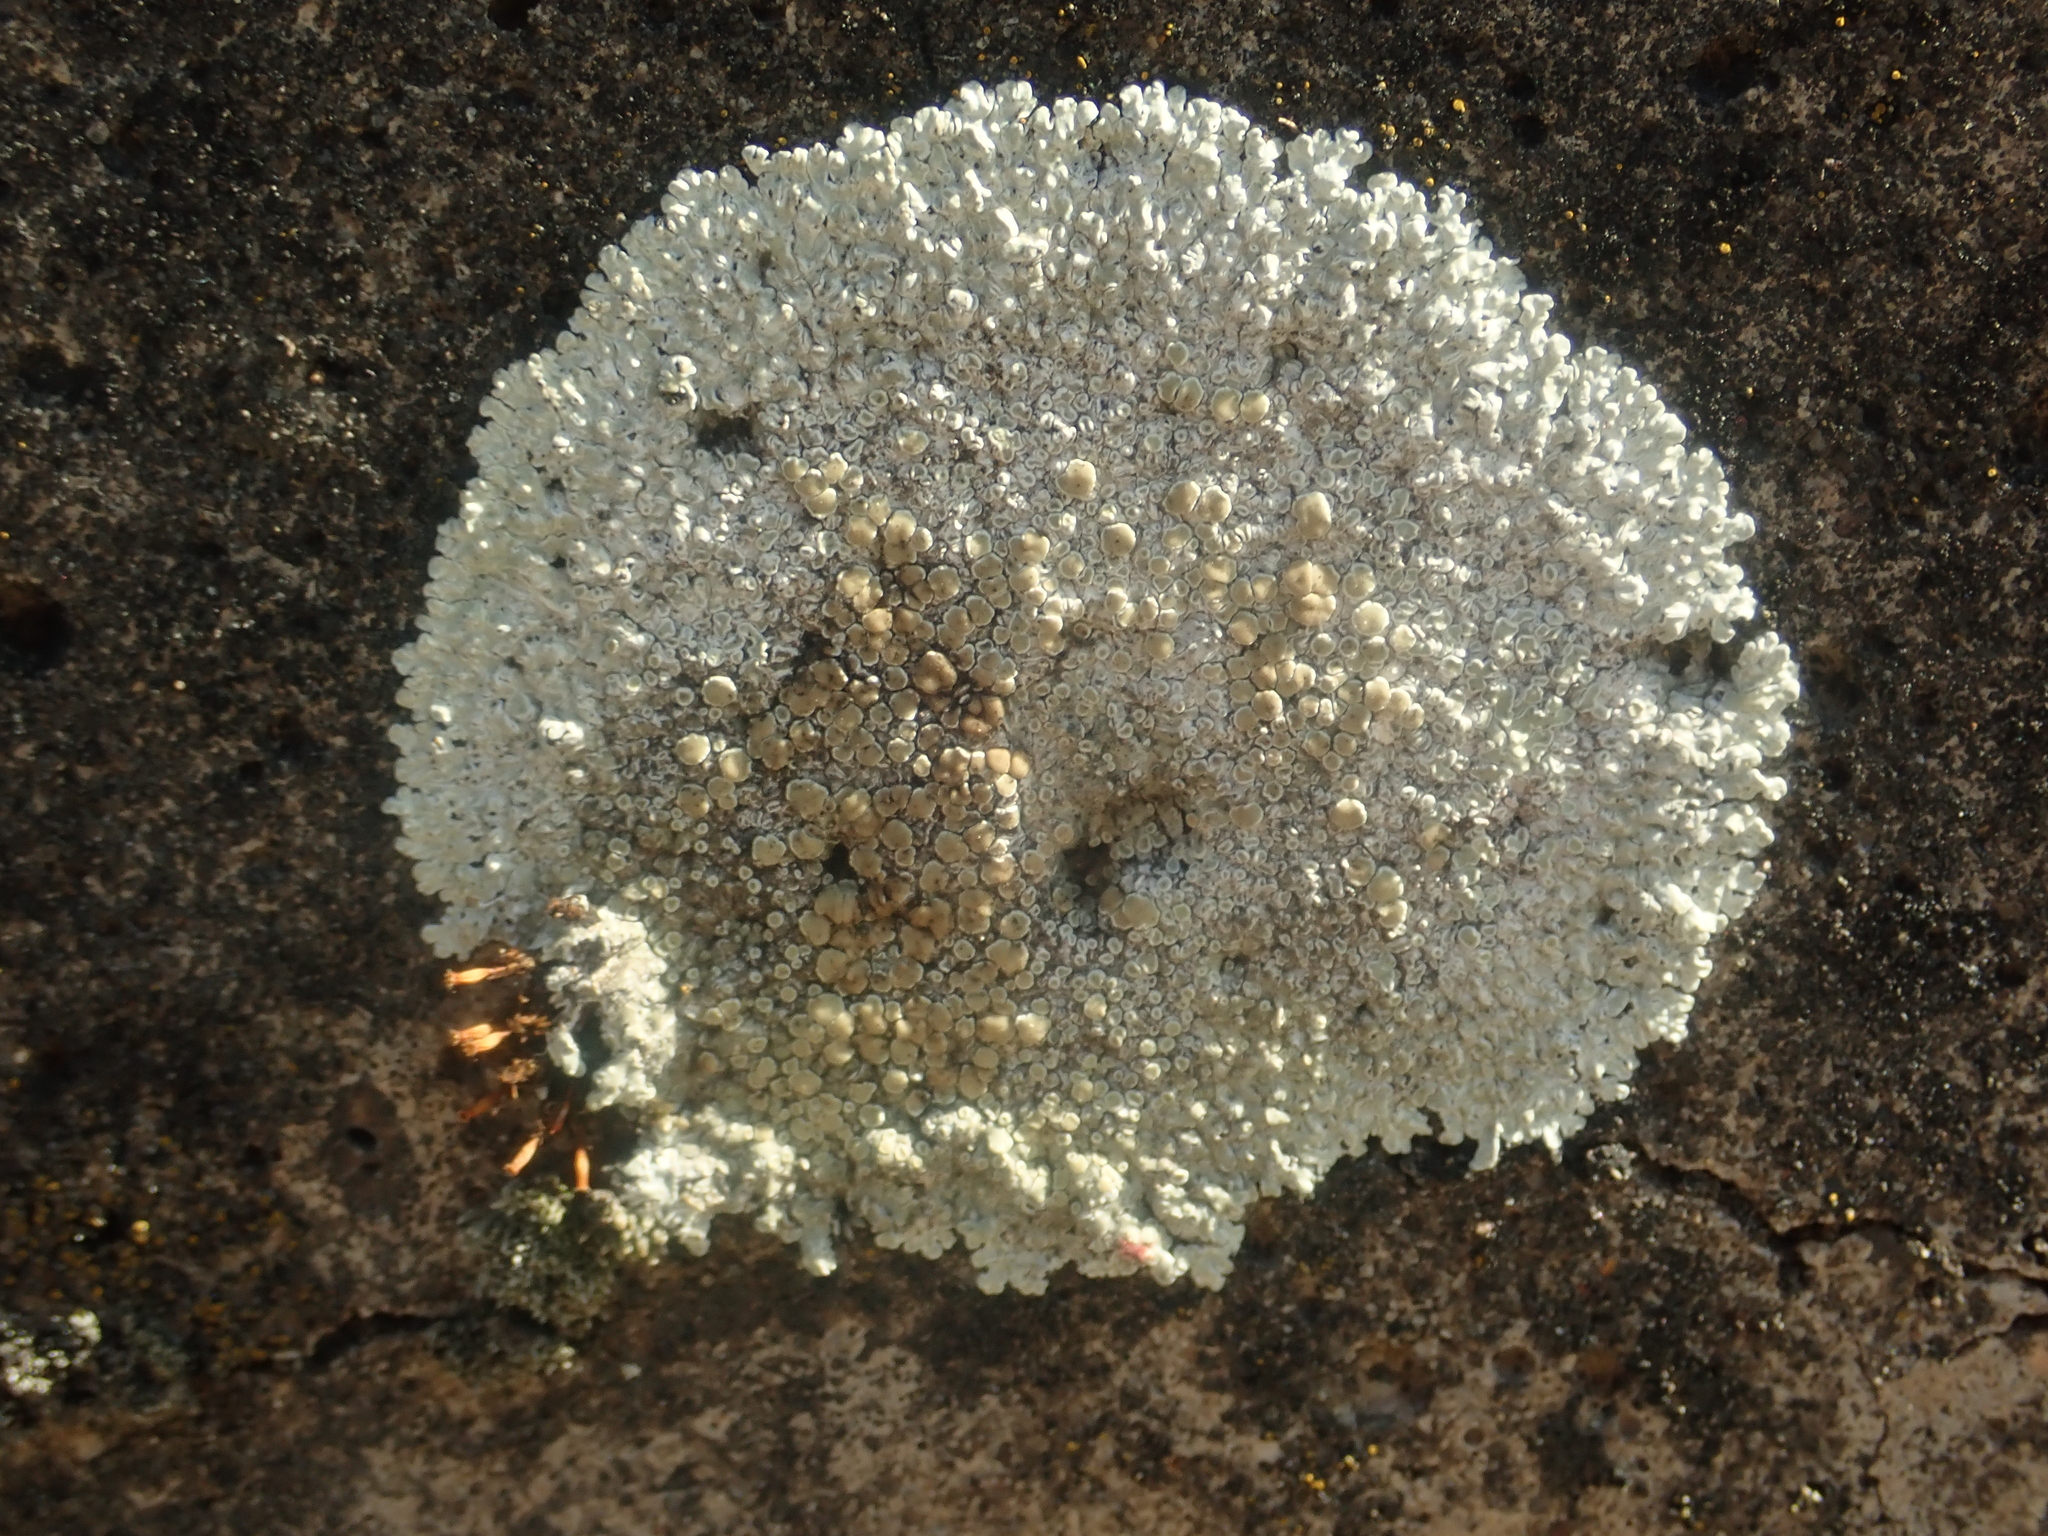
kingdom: Fungi
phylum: Ascomycota
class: Lecanoromycetes
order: Lecanorales
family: Lecanoraceae
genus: Protoparmeliopsis
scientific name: Protoparmeliopsis muralis
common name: Stonewall rim lichen
